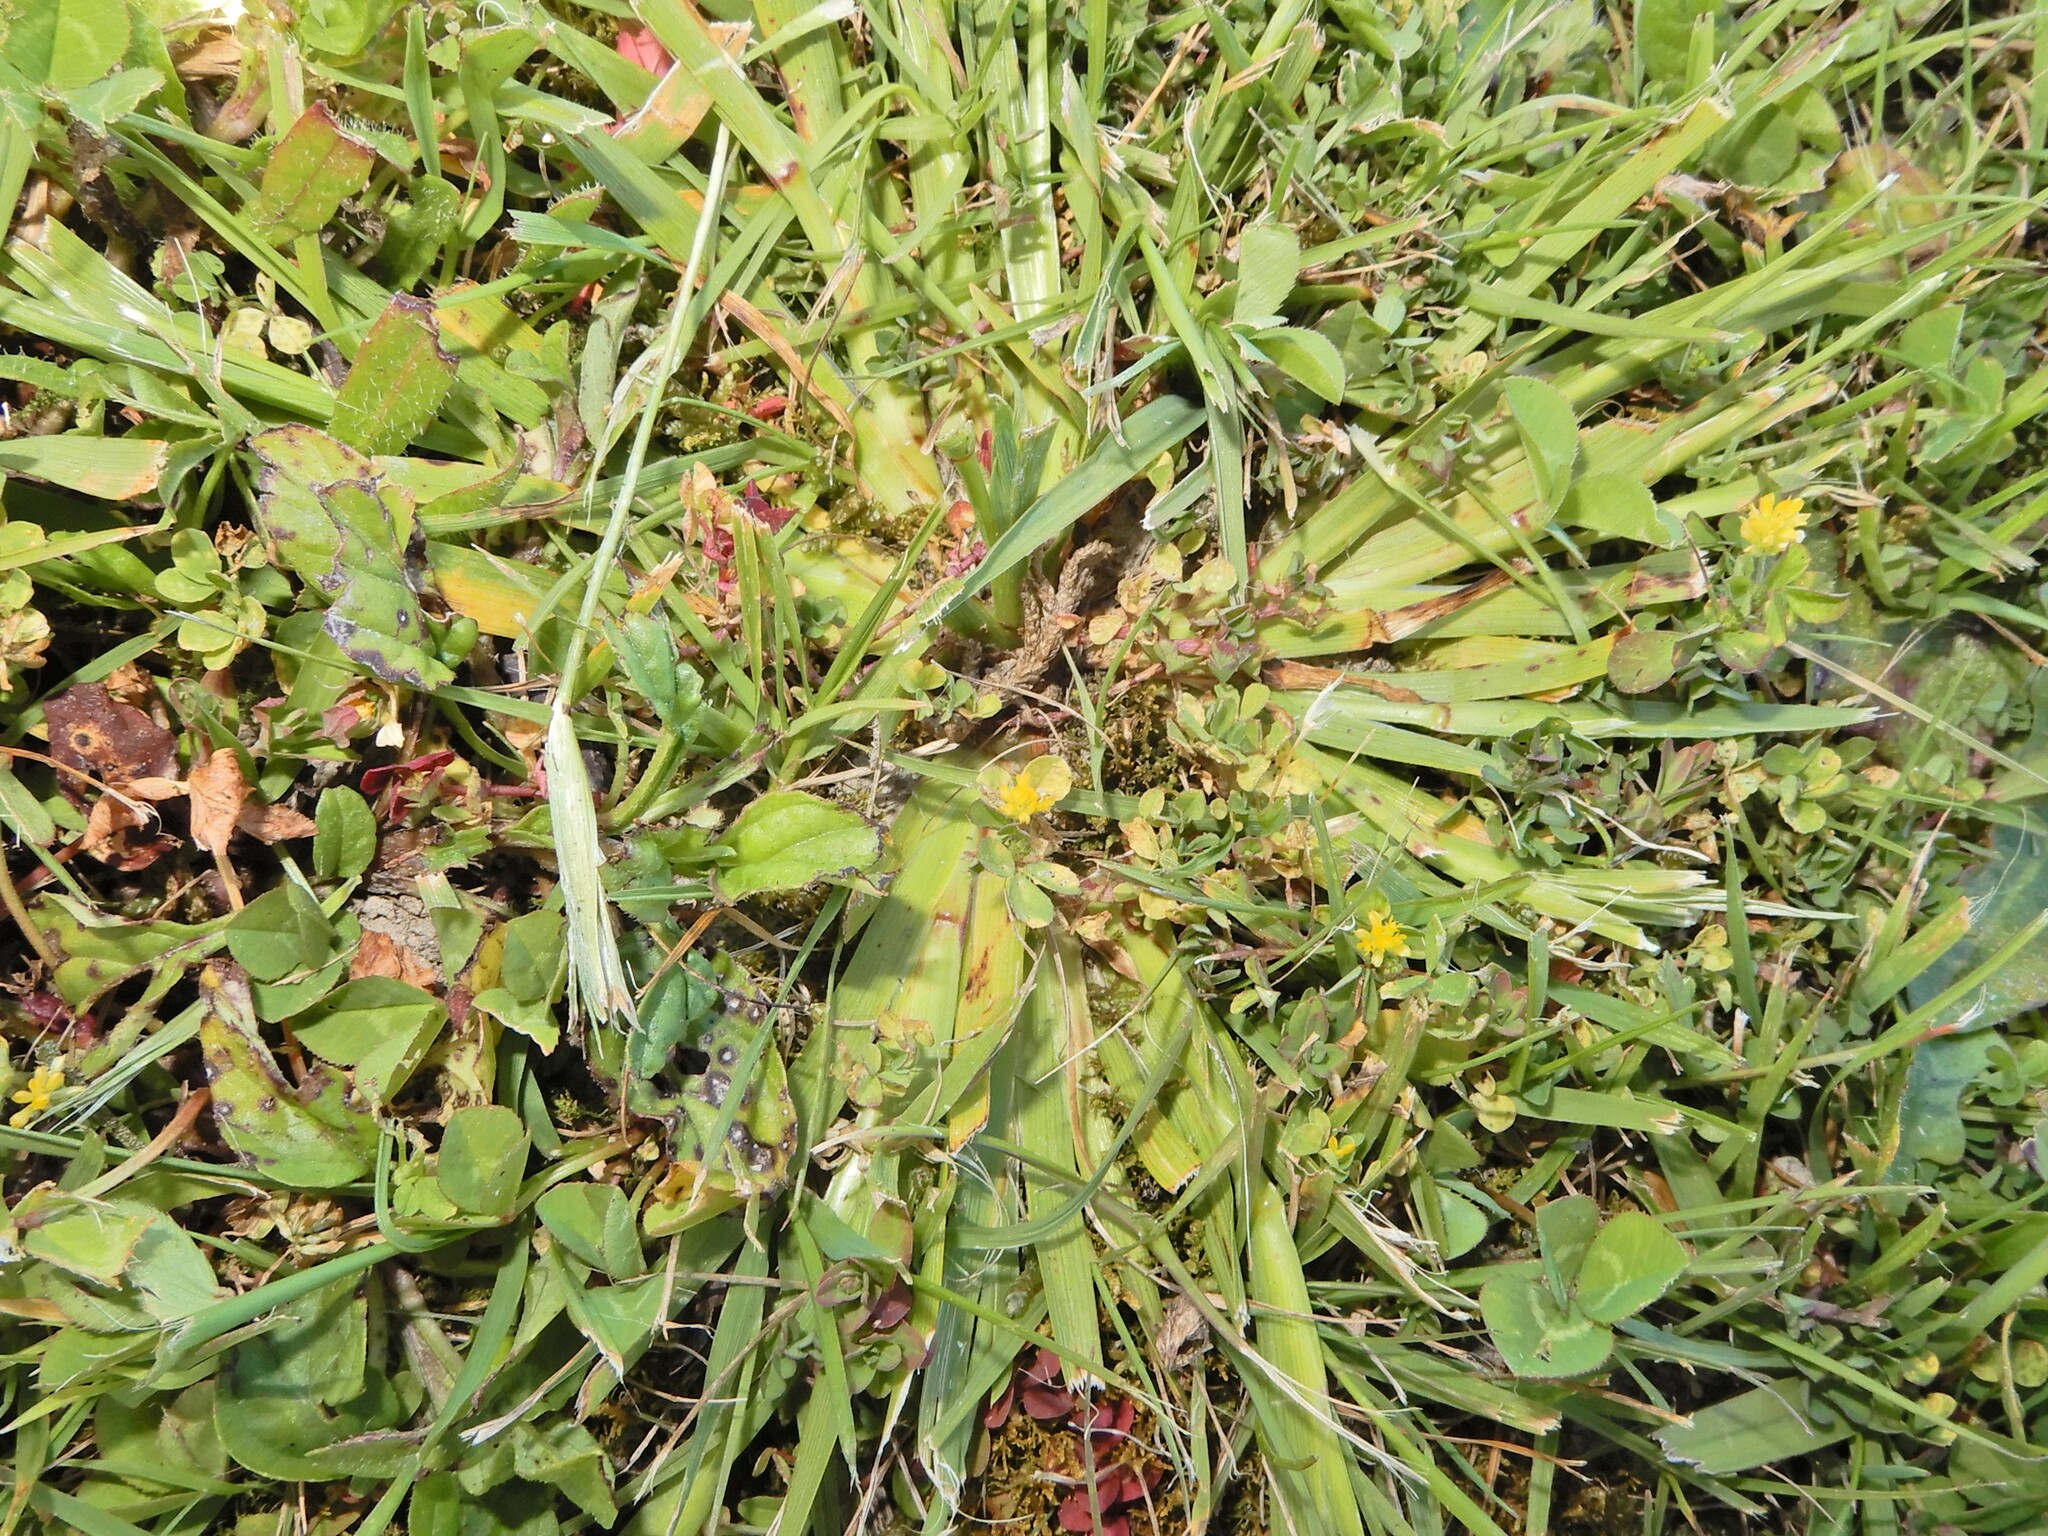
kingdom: Plantae
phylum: Tracheophyta
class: Liliopsida
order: Asparagales
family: Iridaceae
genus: Sisyrinchium
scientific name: Sisyrinchium micranthum
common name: Bermuda pigroot
